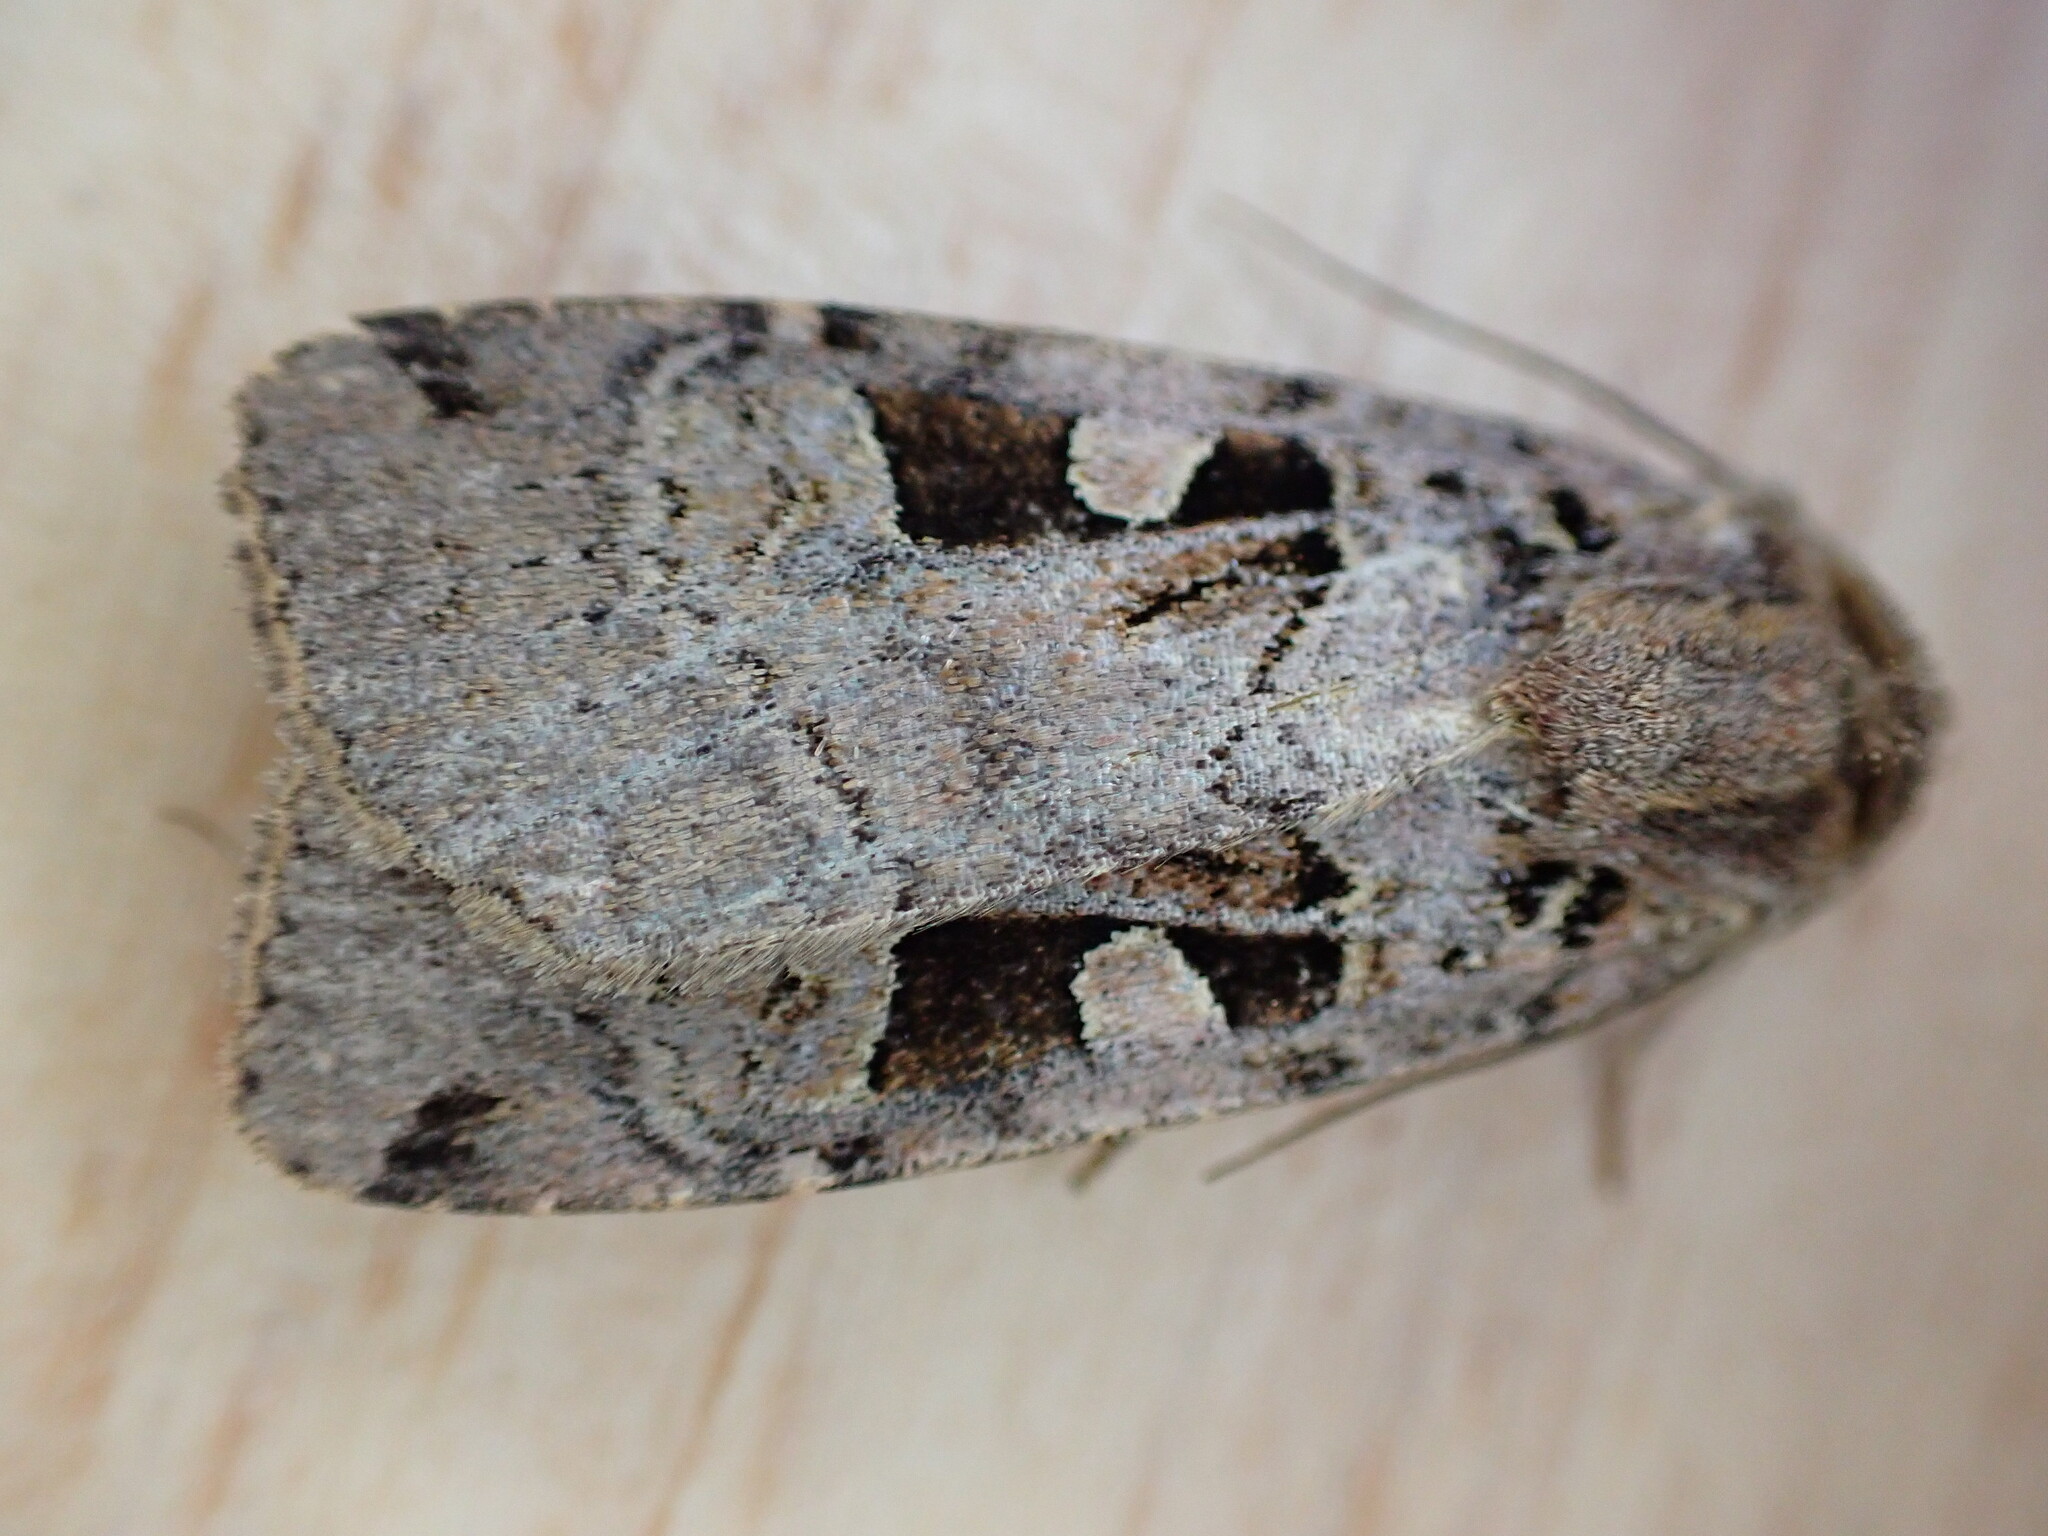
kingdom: Animalia
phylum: Arthropoda
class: Insecta
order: Lepidoptera
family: Noctuidae
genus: Xestia
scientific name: Xestia triangulum
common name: Double square-spot
